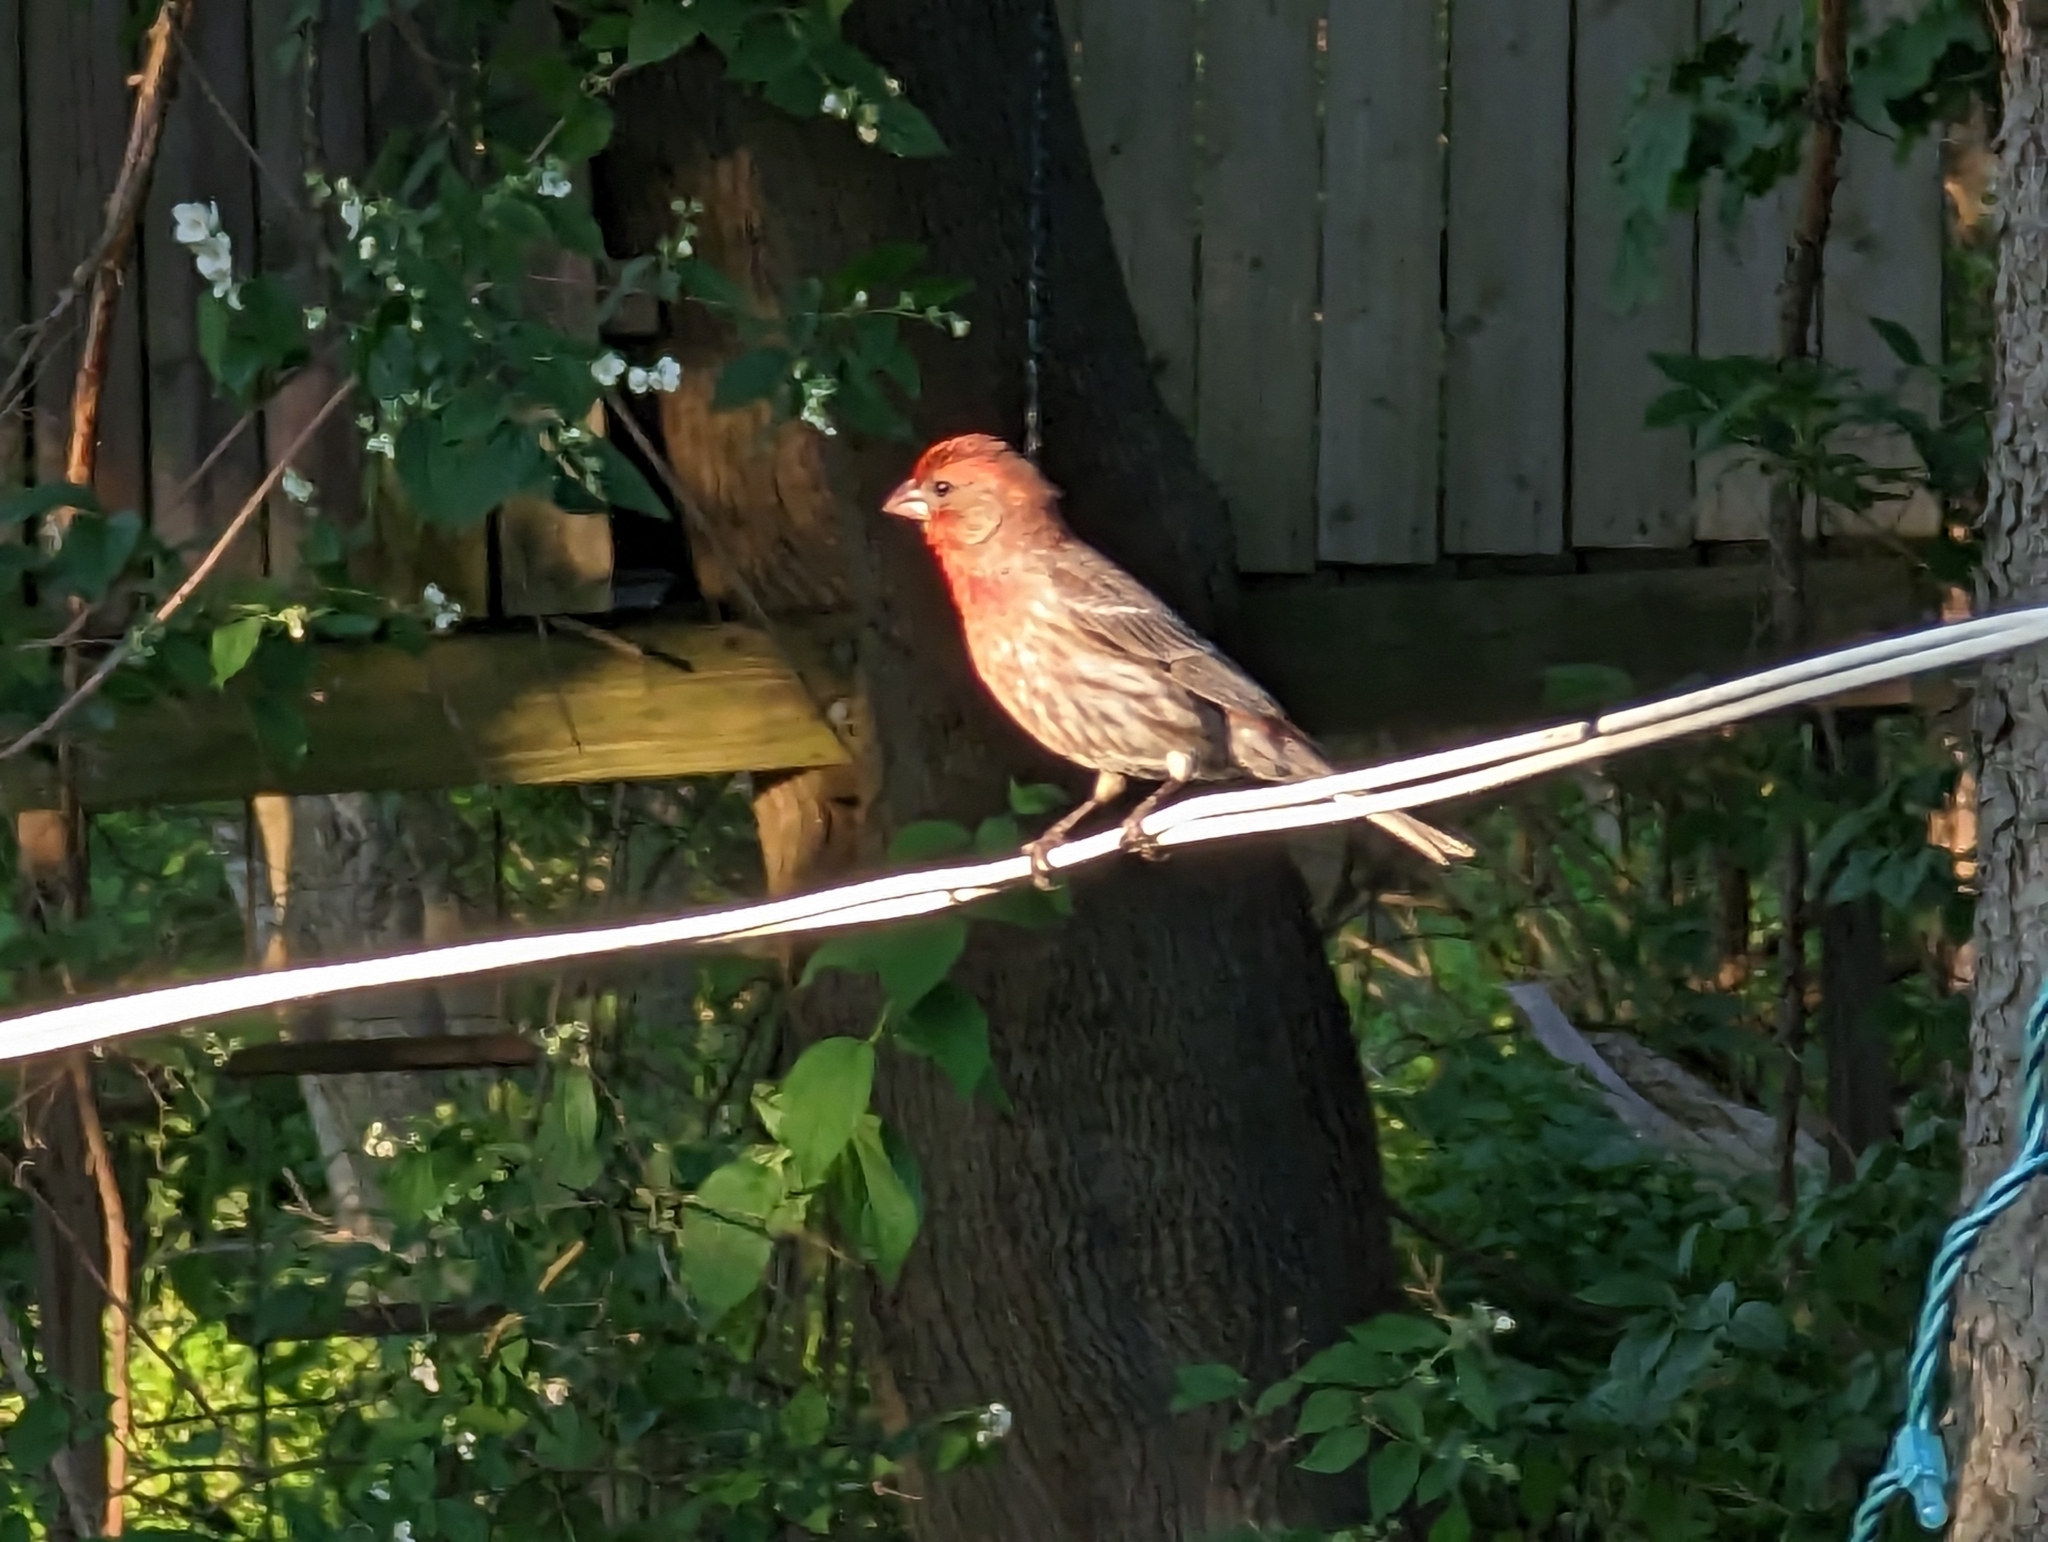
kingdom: Animalia
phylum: Chordata
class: Aves
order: Passeriformes
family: Fringillidae
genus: Haemorhous
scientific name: Haemorhous mexicanus
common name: House finch
